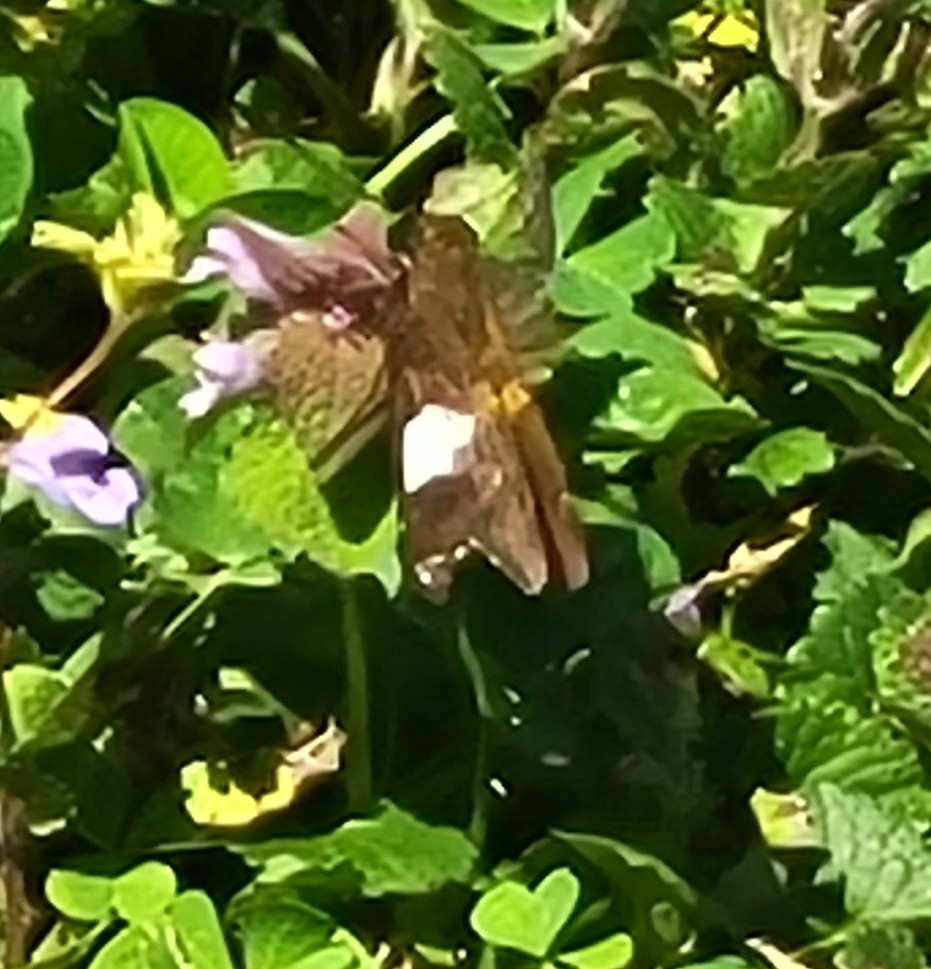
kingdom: Animalia
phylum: Arthropoda
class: Insecta
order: Lepidoptera
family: Hesperiidae
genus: Epargyreus
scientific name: Epargyreus clarus
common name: Silver-spotted skipper
